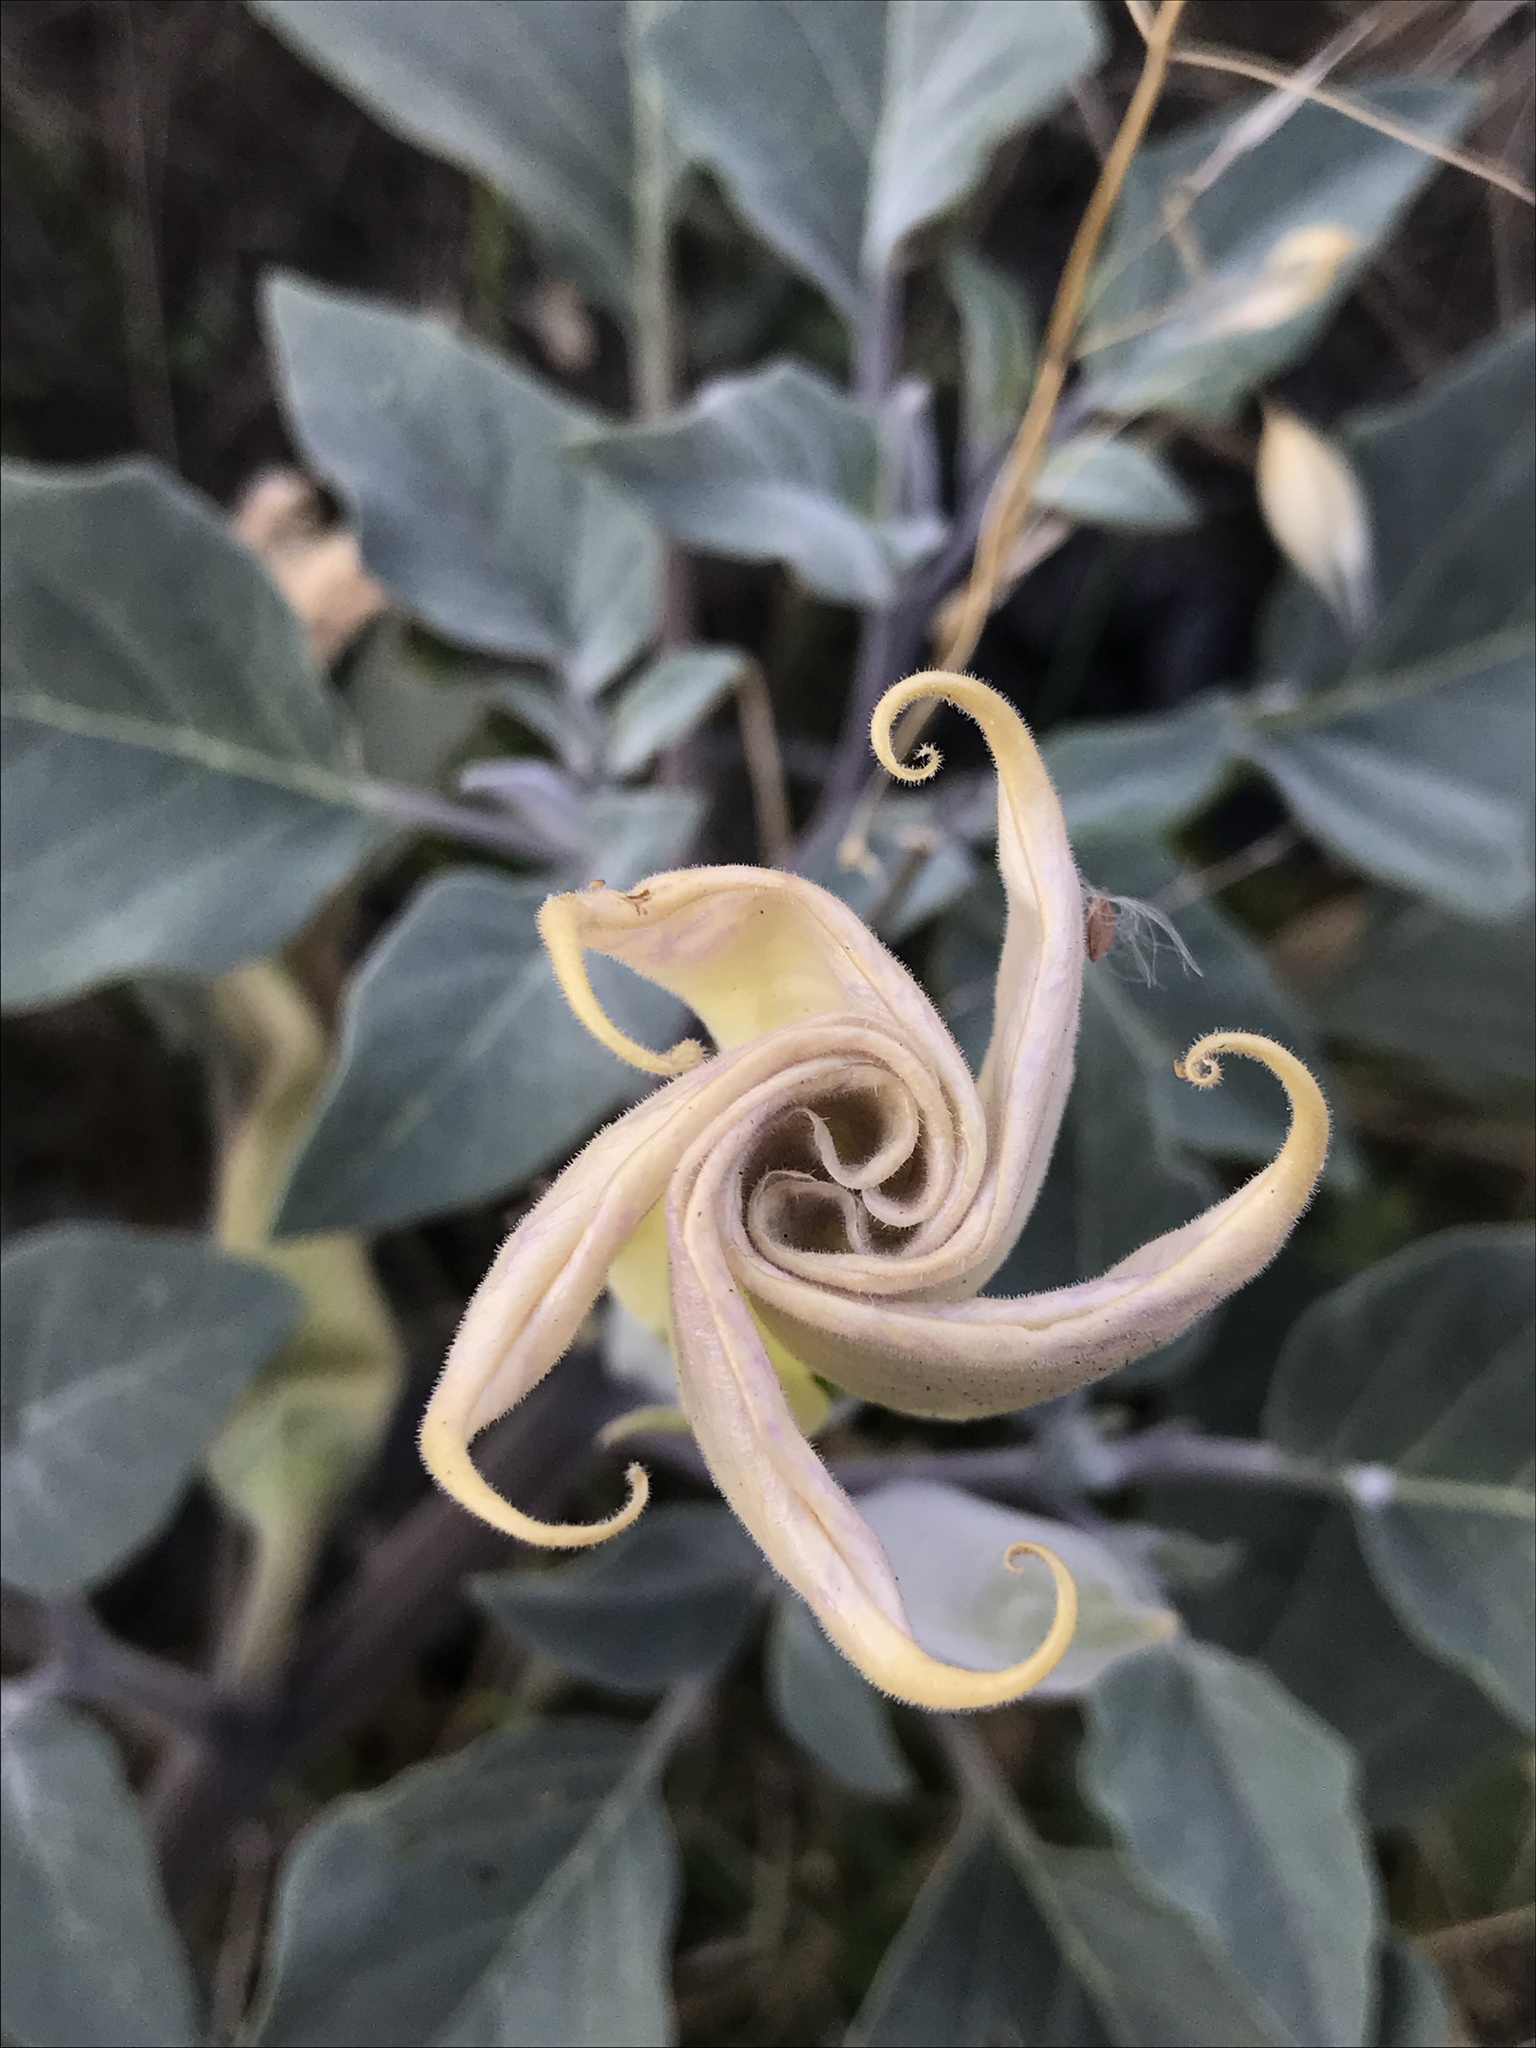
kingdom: Plantae
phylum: Tracheophyta
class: Magnoliopsida
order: Solanales
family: Solanaceae
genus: Datura
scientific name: Datura wrightii
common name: Sacred thorn-apple
